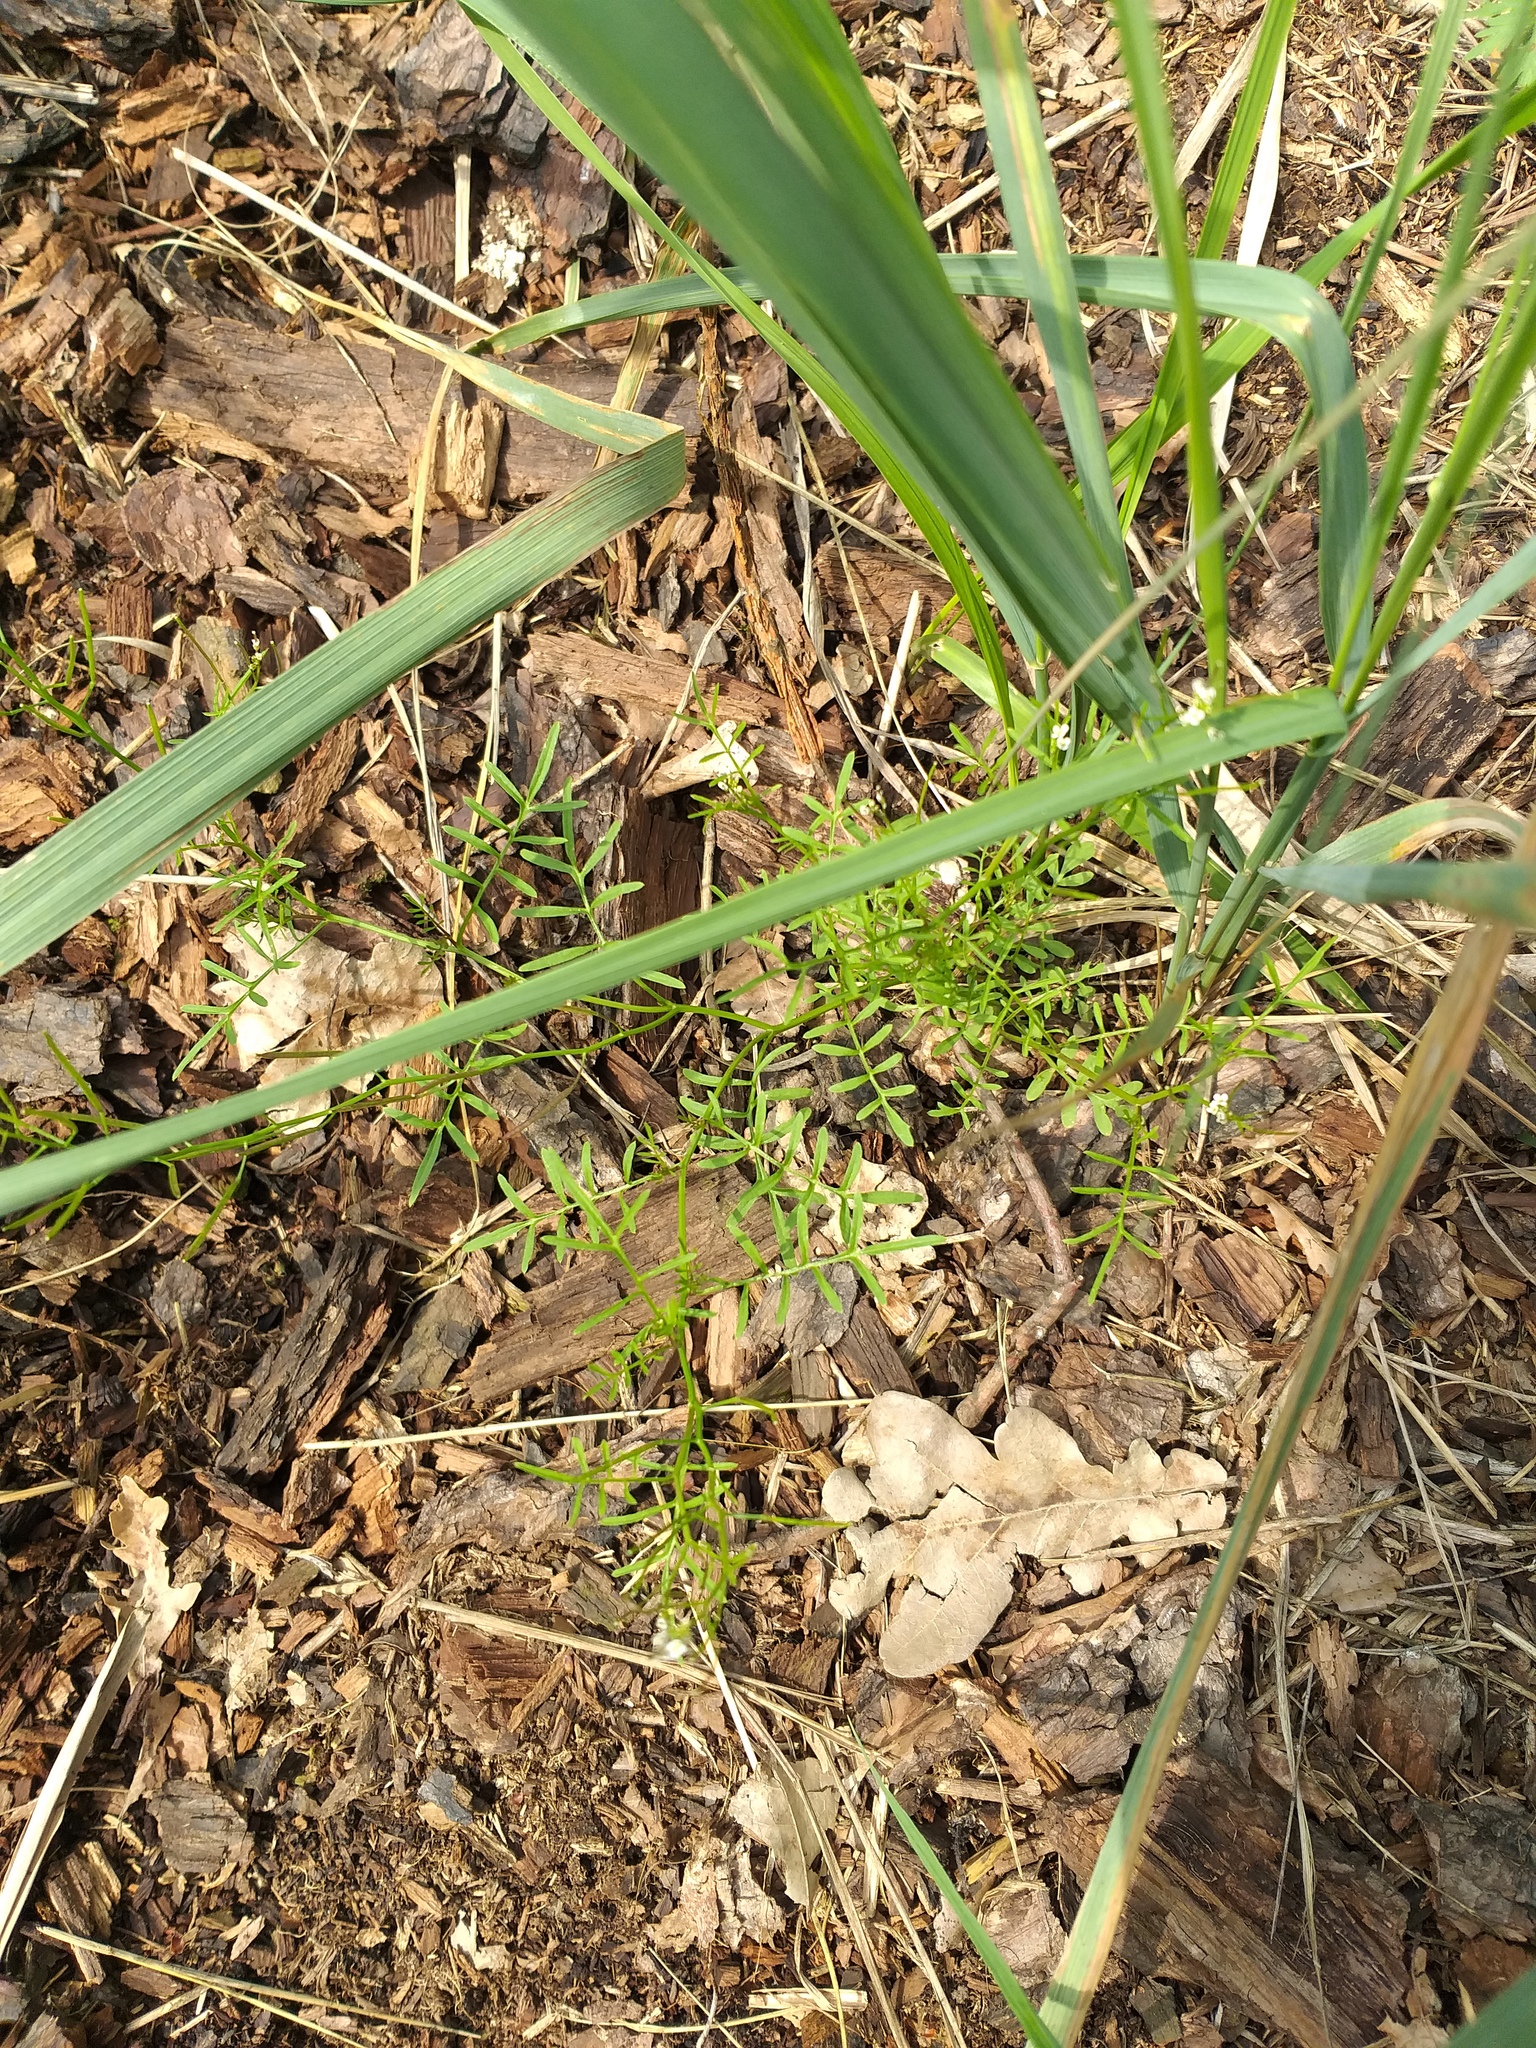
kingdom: Plantae
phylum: Tracheophyta
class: Magnoliopsida
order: Brassicales
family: Brassicaceae
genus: Cardamine
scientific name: Cardamine parviflora
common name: Sand bittercress
